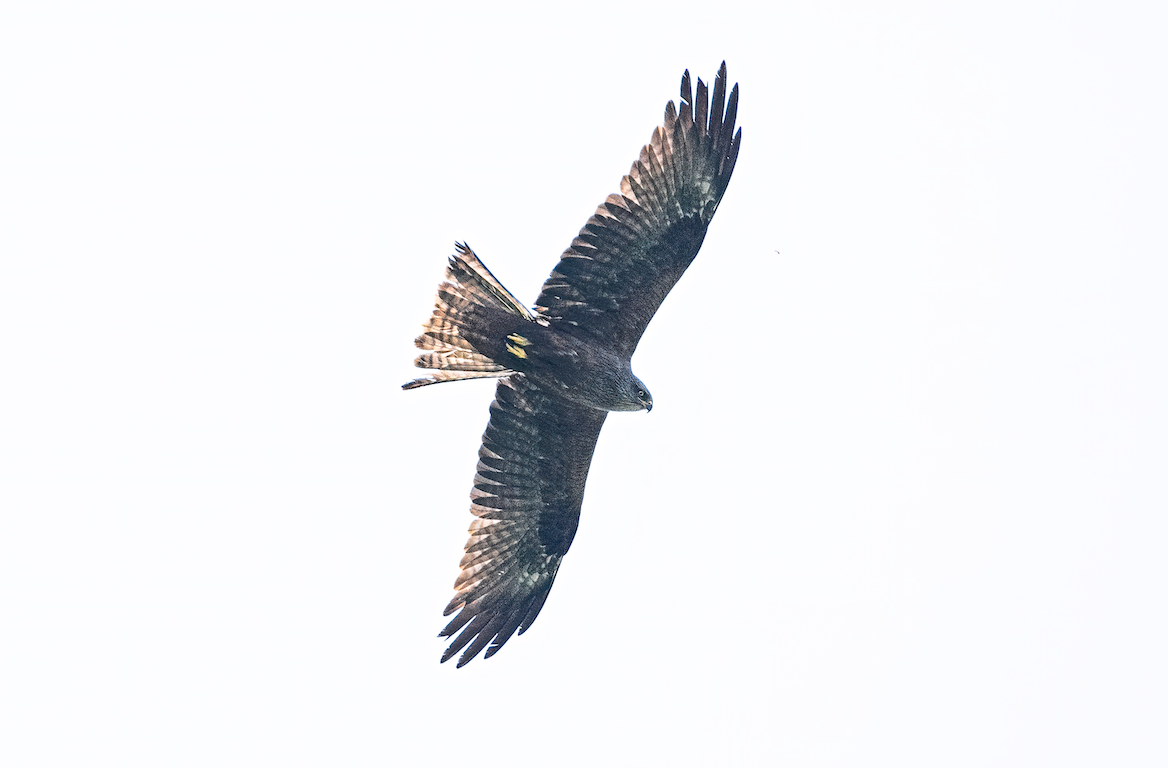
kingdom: Animalia
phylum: Chordata
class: Aves
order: Accipitriformes
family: Accipitridae
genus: Milvus
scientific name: Milvus migrans
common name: Black kite
